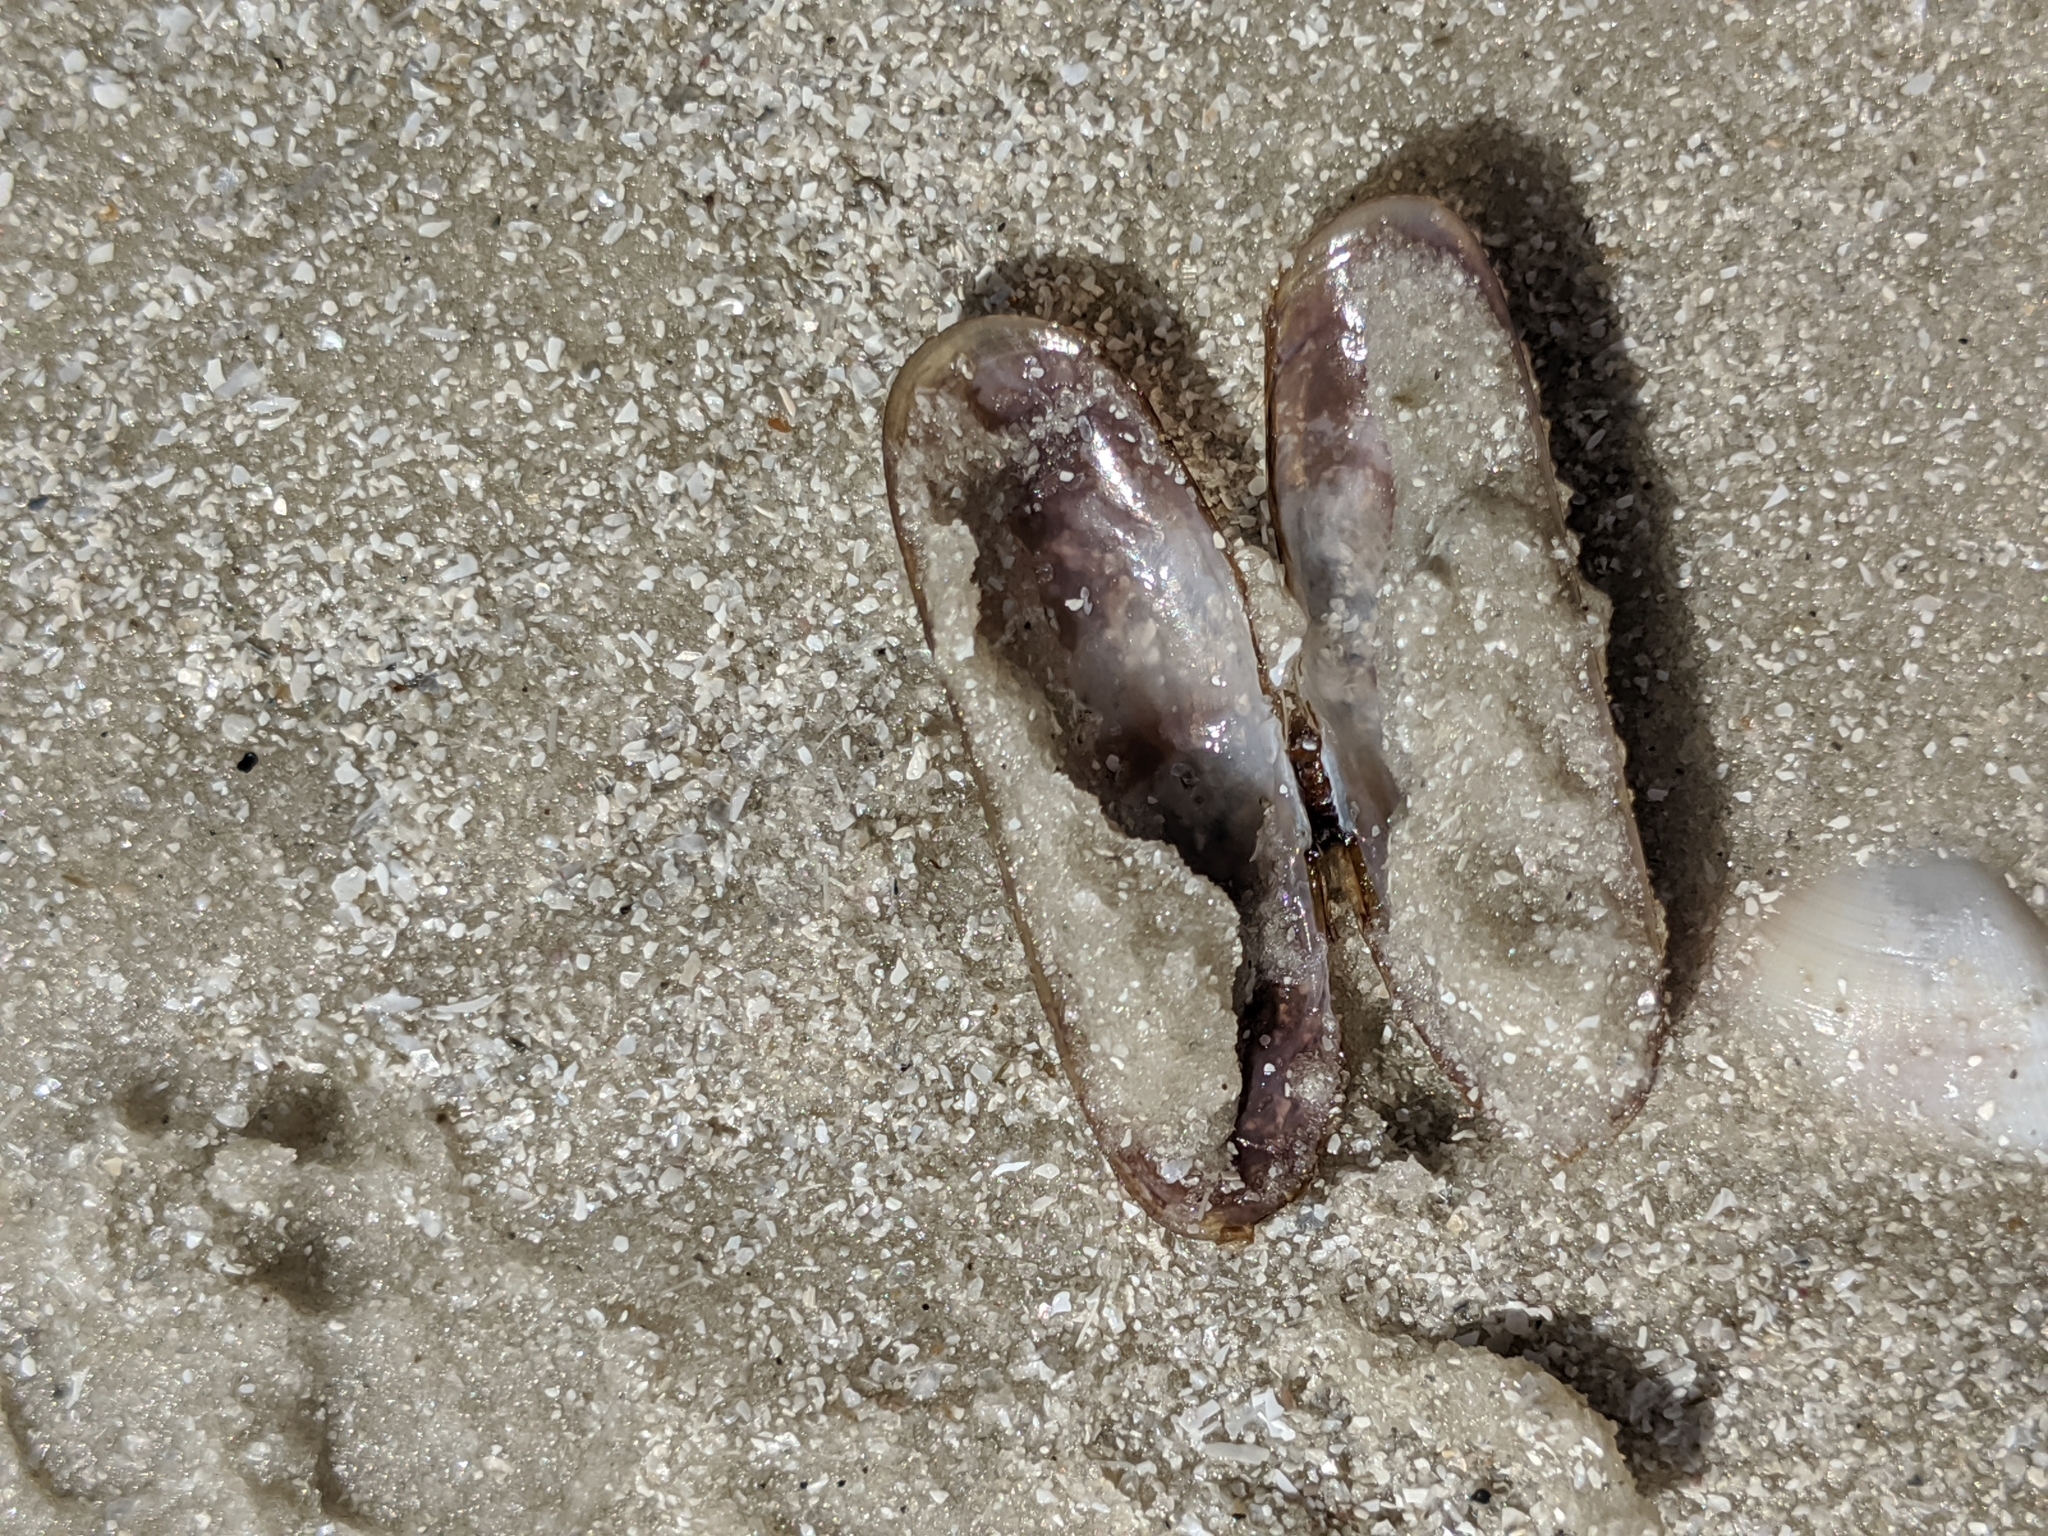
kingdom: Animalia
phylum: Mollusca
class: Bivalvia
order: Cardiida
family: Solecurtidae
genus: Tagelus
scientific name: Tagelus divisus
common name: Purplish tagelus
